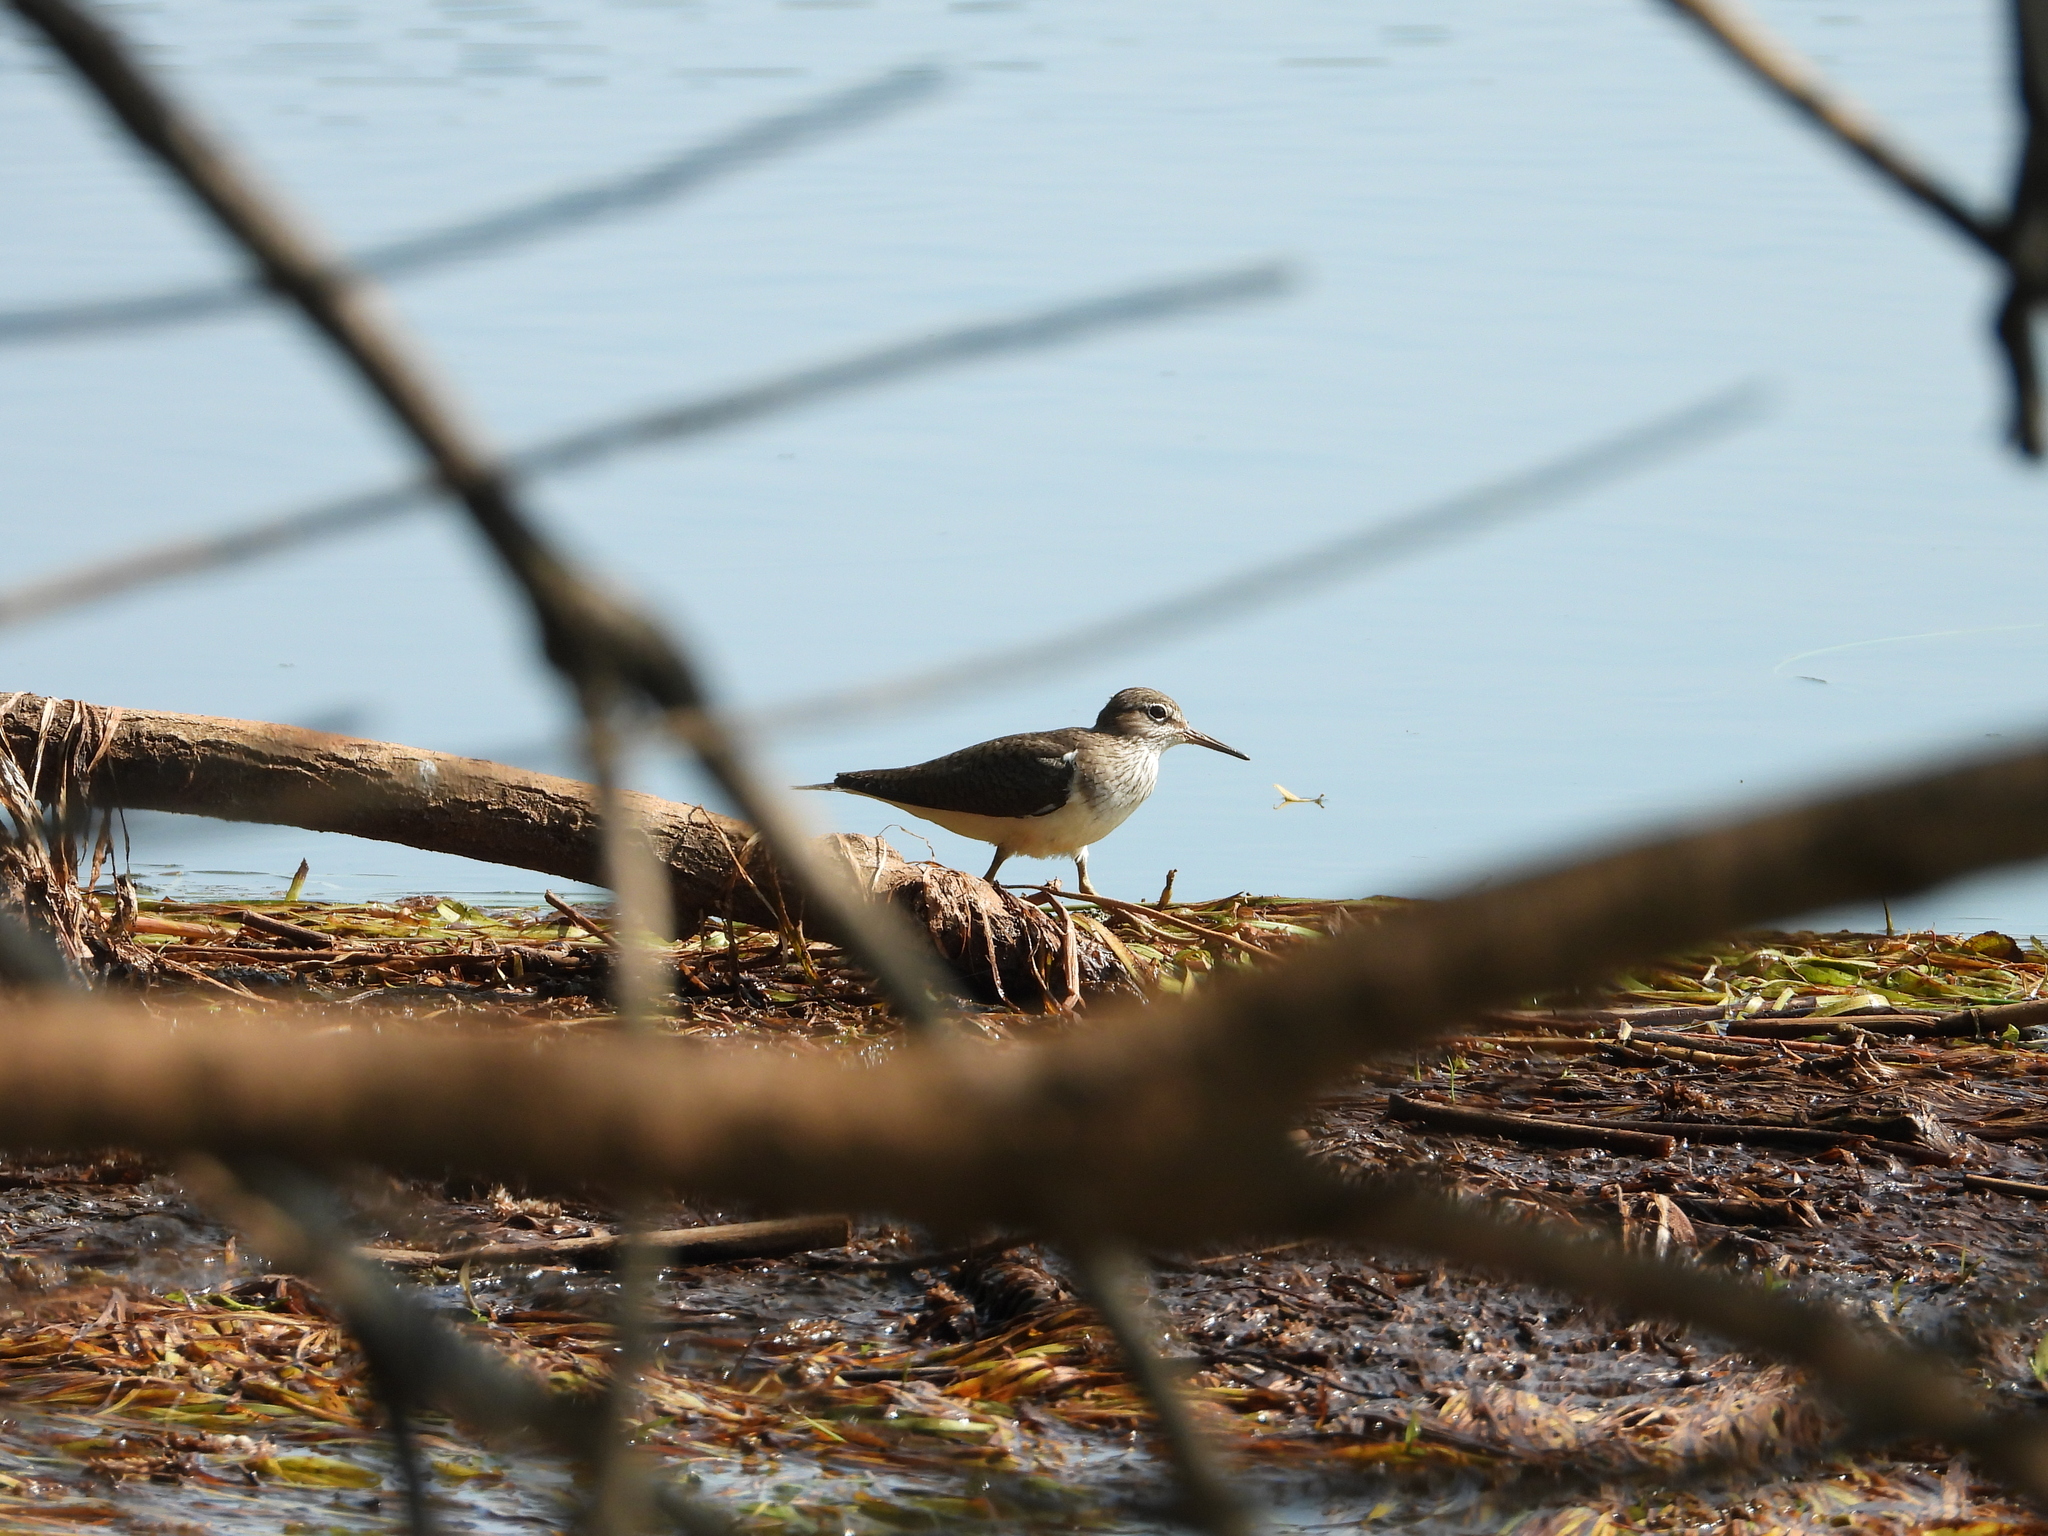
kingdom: Animalia
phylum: Chordata
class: Aves
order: Charadriiformes
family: Scolopacidae
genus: Actitis
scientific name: Actitis hypoleucos
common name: Common sandpiper
